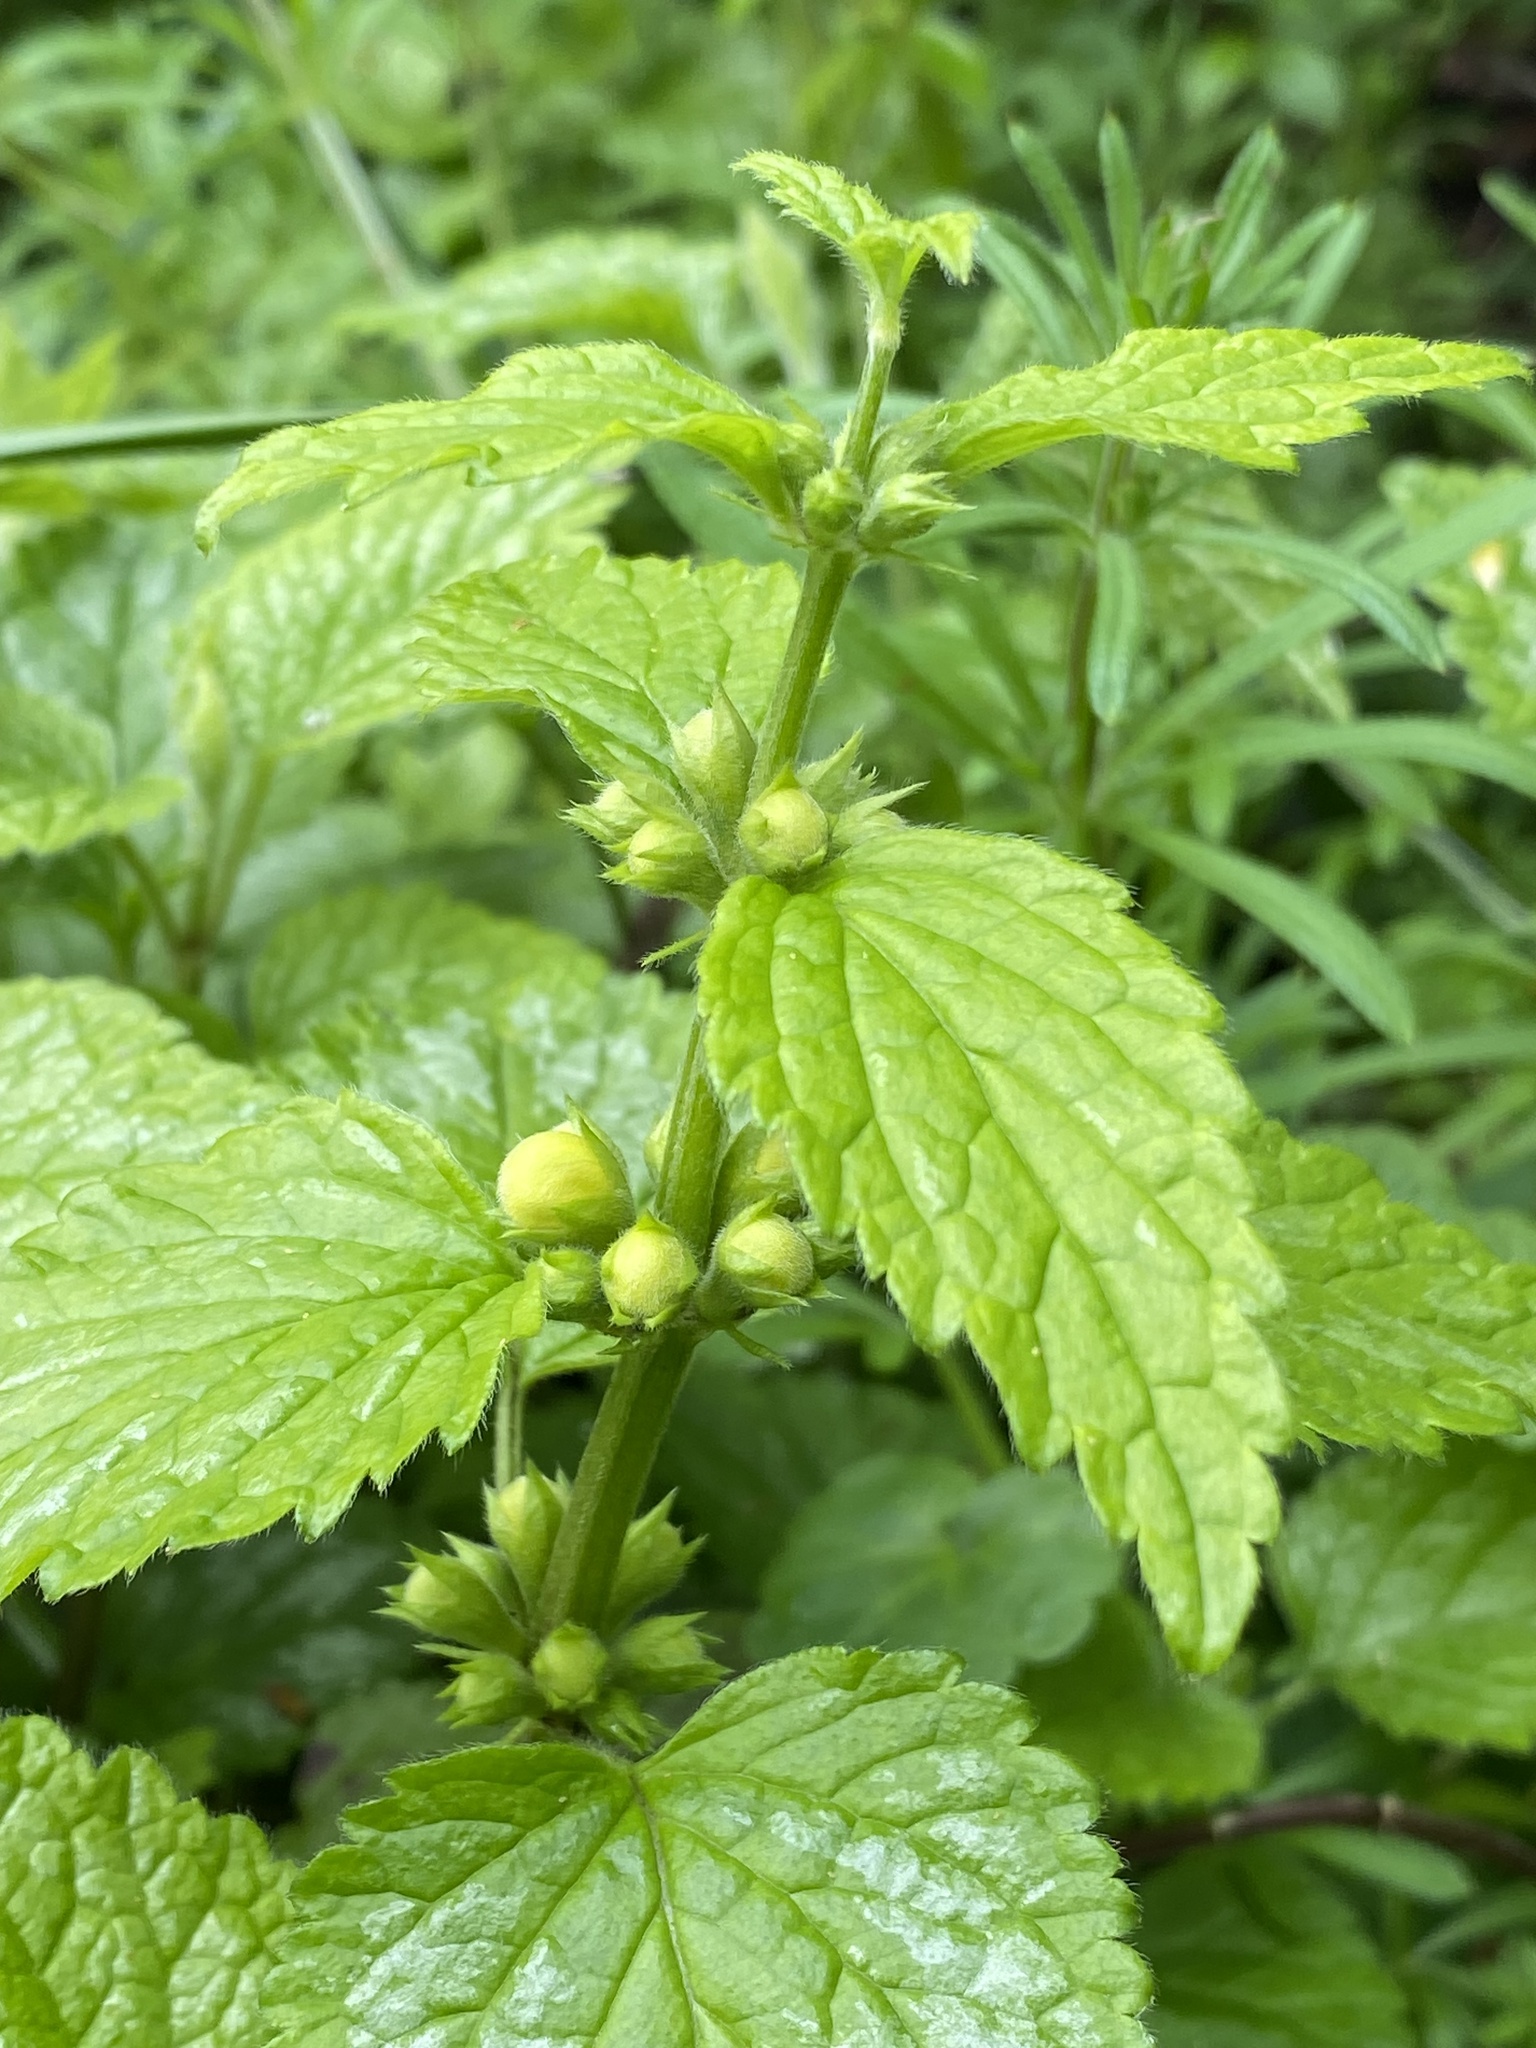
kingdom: Plantae
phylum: Tracheophyta
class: Magnoliopsida
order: Lamiales
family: Lamiaceae
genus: Lamium
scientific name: Lamium galeobdolon
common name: Yellow archangel
